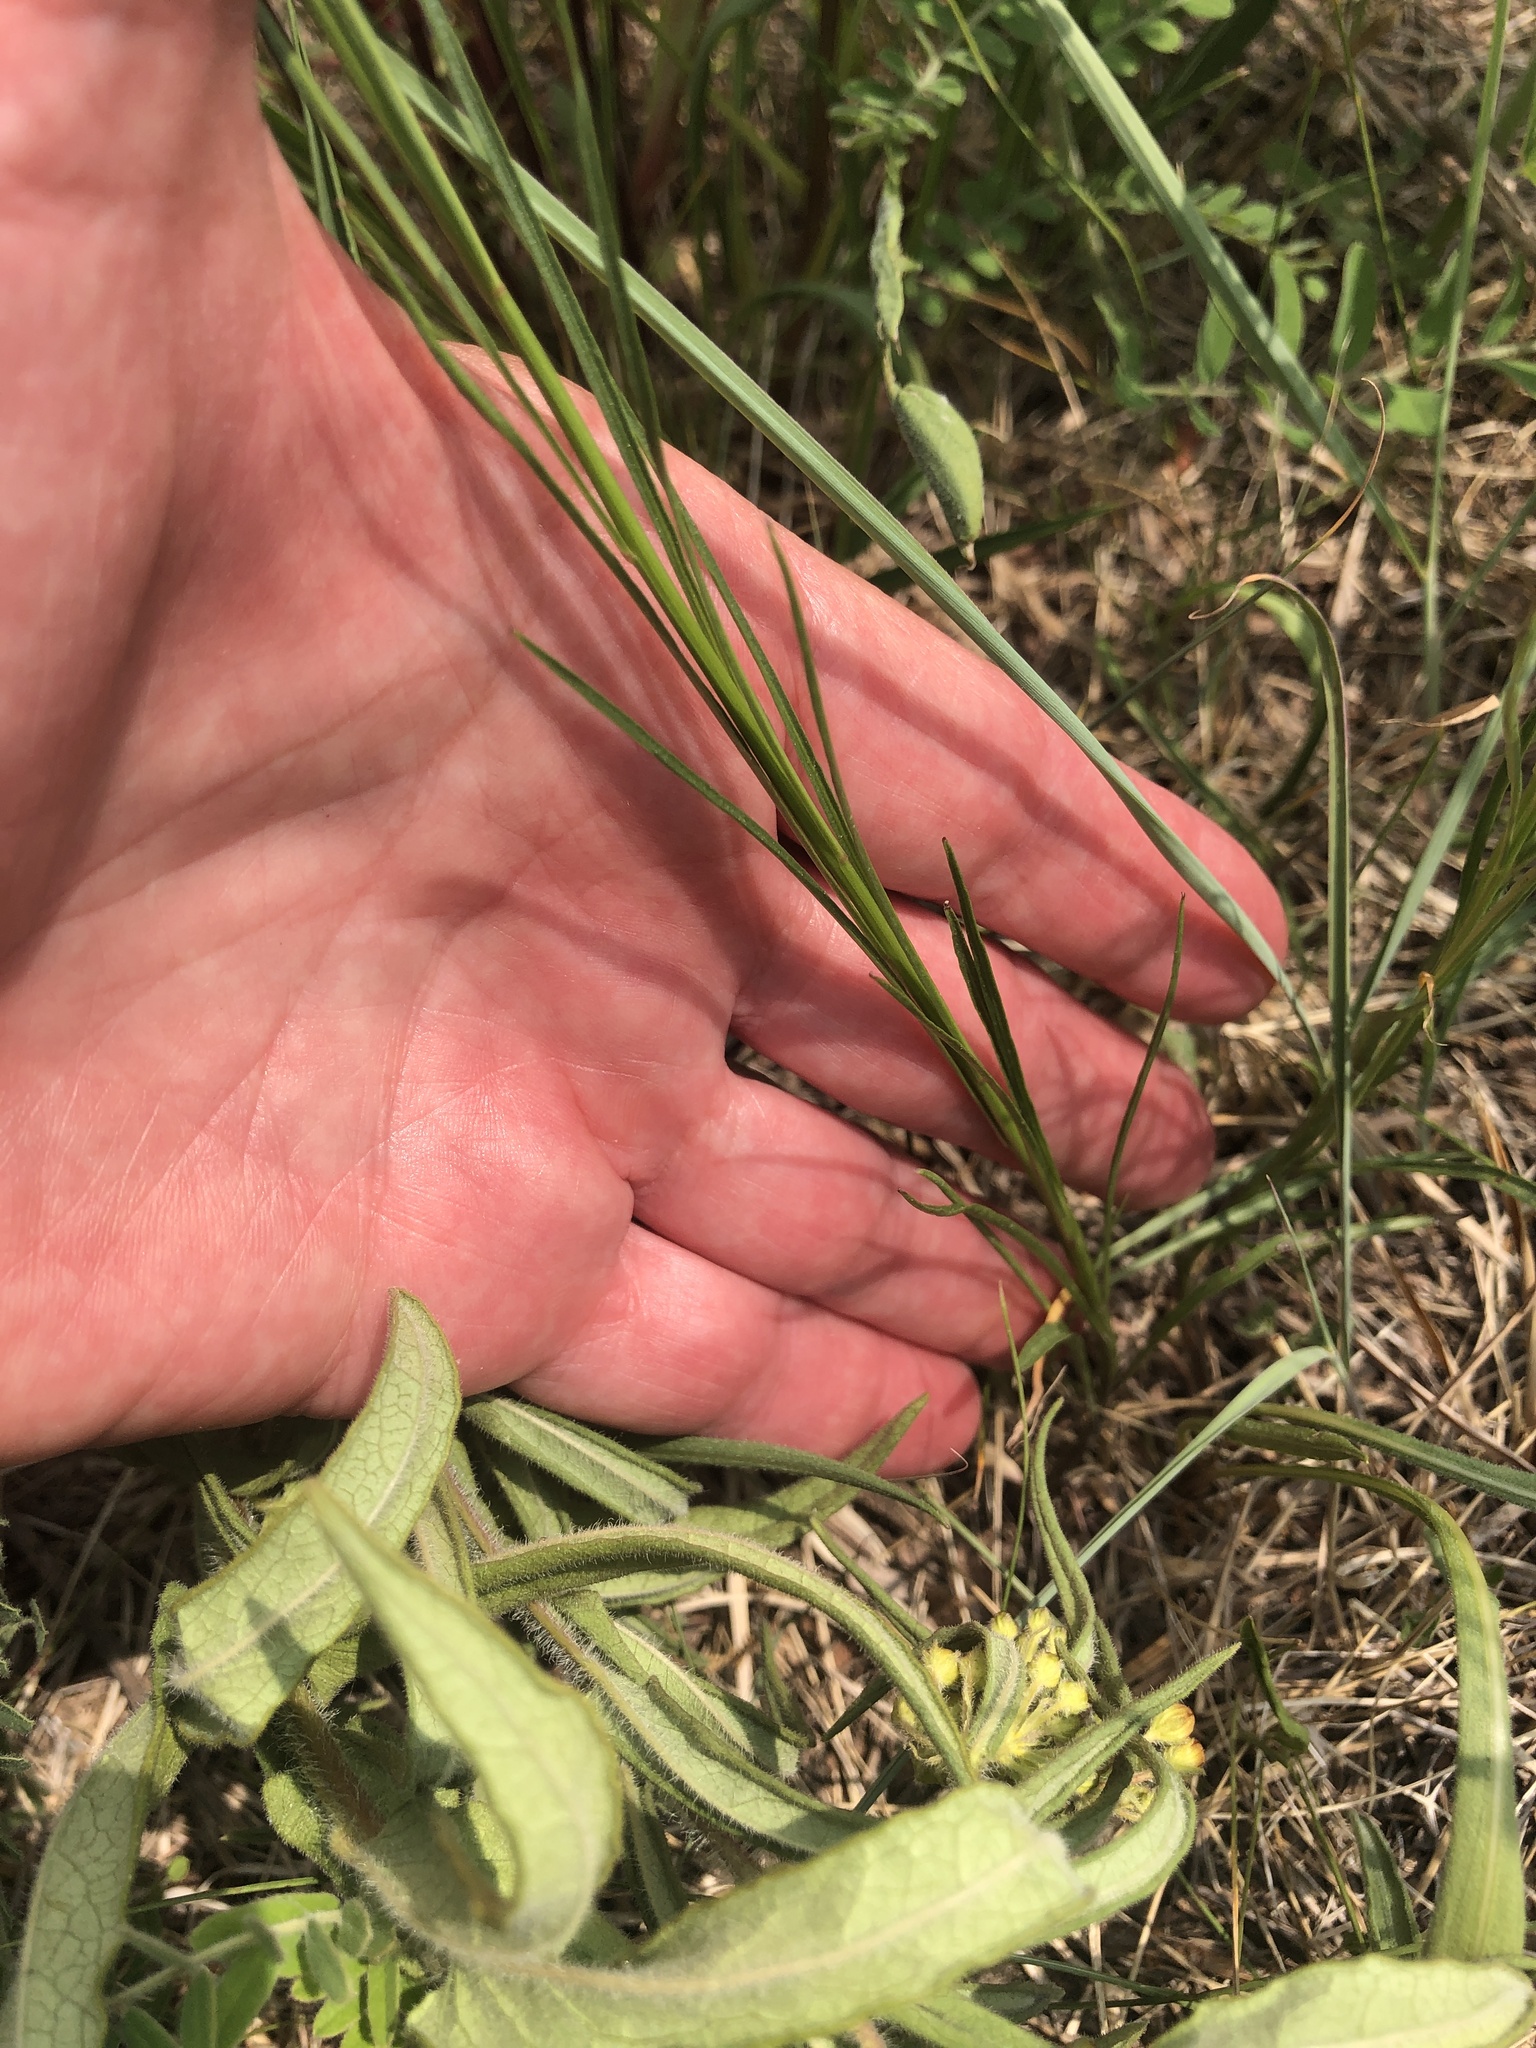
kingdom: Plantae
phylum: Tracheophyta
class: Magnoliopsida
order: Asterales
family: Campanulaceae
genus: Campanula
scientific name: Campanula intercedens
